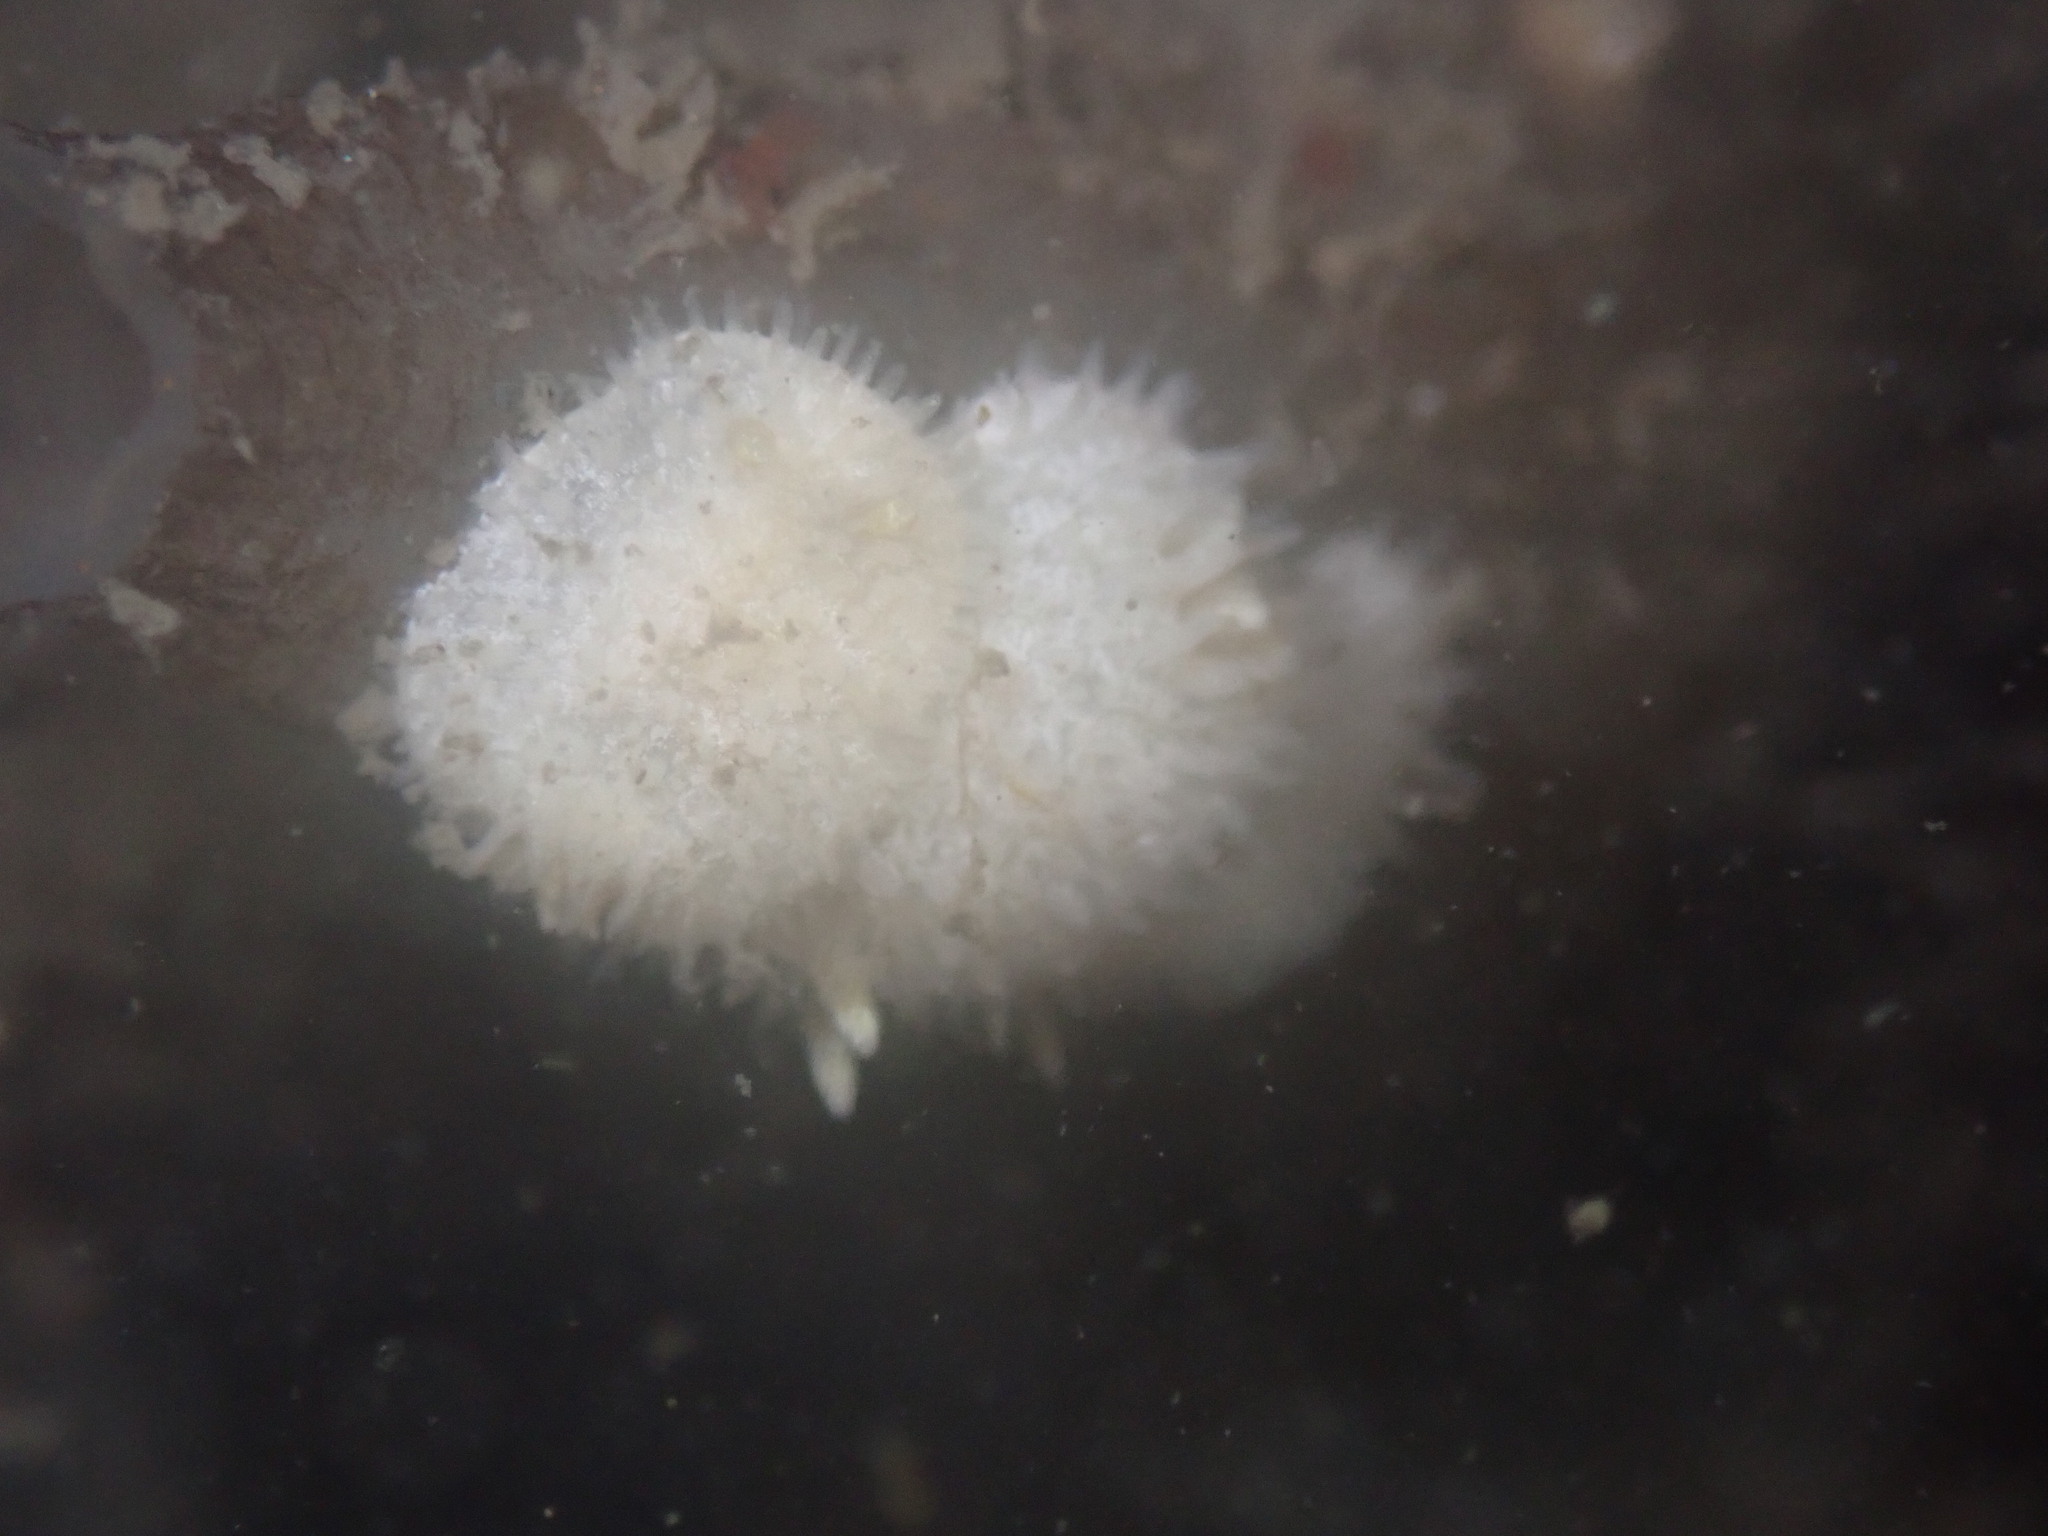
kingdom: Animalia
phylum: Mollusca
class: Gastropoda
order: Nudibranchia
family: Calycidorididae
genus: Diaphorodoris
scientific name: Diaphorodoris lirulatocauda
